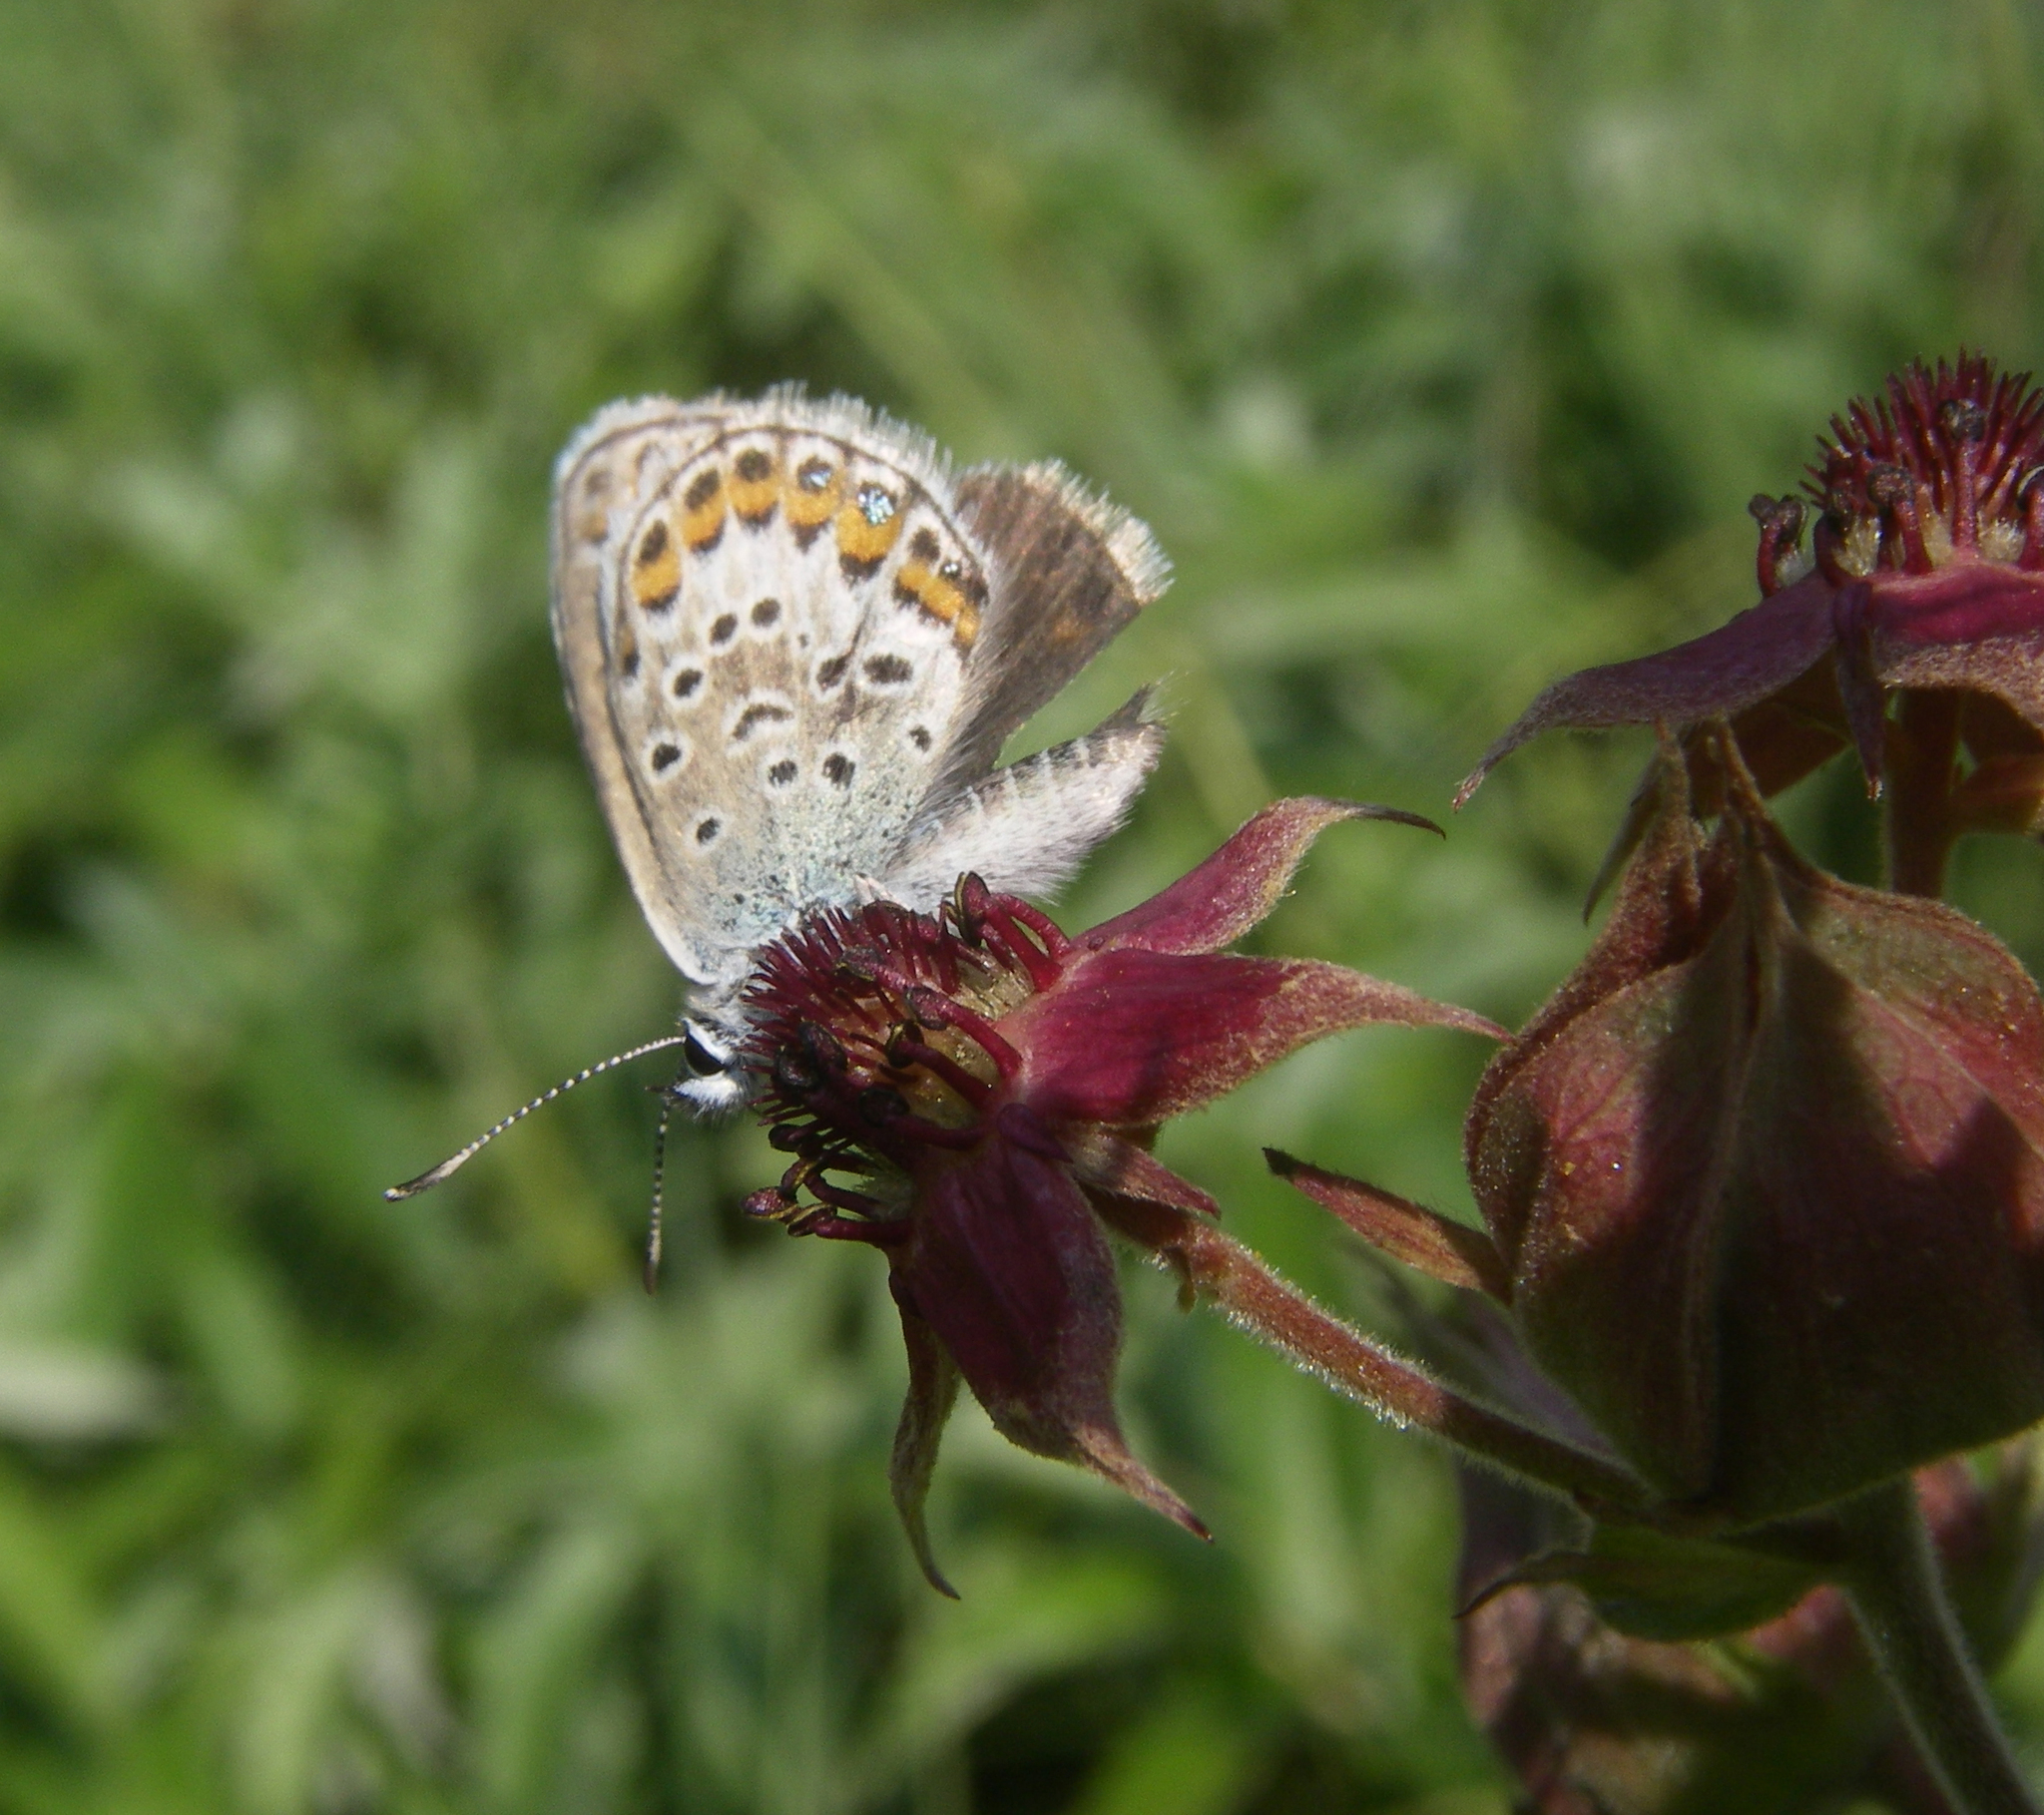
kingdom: Animalia
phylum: Arthropoda
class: Insecta
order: Lepidoptera
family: Lycaenidae
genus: Plebejus
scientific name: Plebejus argus
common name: Silver-studded blue
